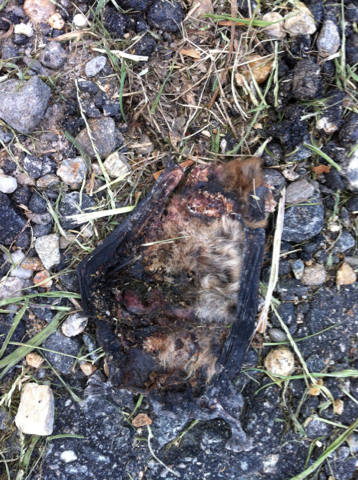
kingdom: Animalia
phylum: Chordata
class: Mammalia
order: Chiroptera
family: Vespertilionidae
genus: Eptesicus
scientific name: Eptesicus fuscus
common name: Big brown bat
